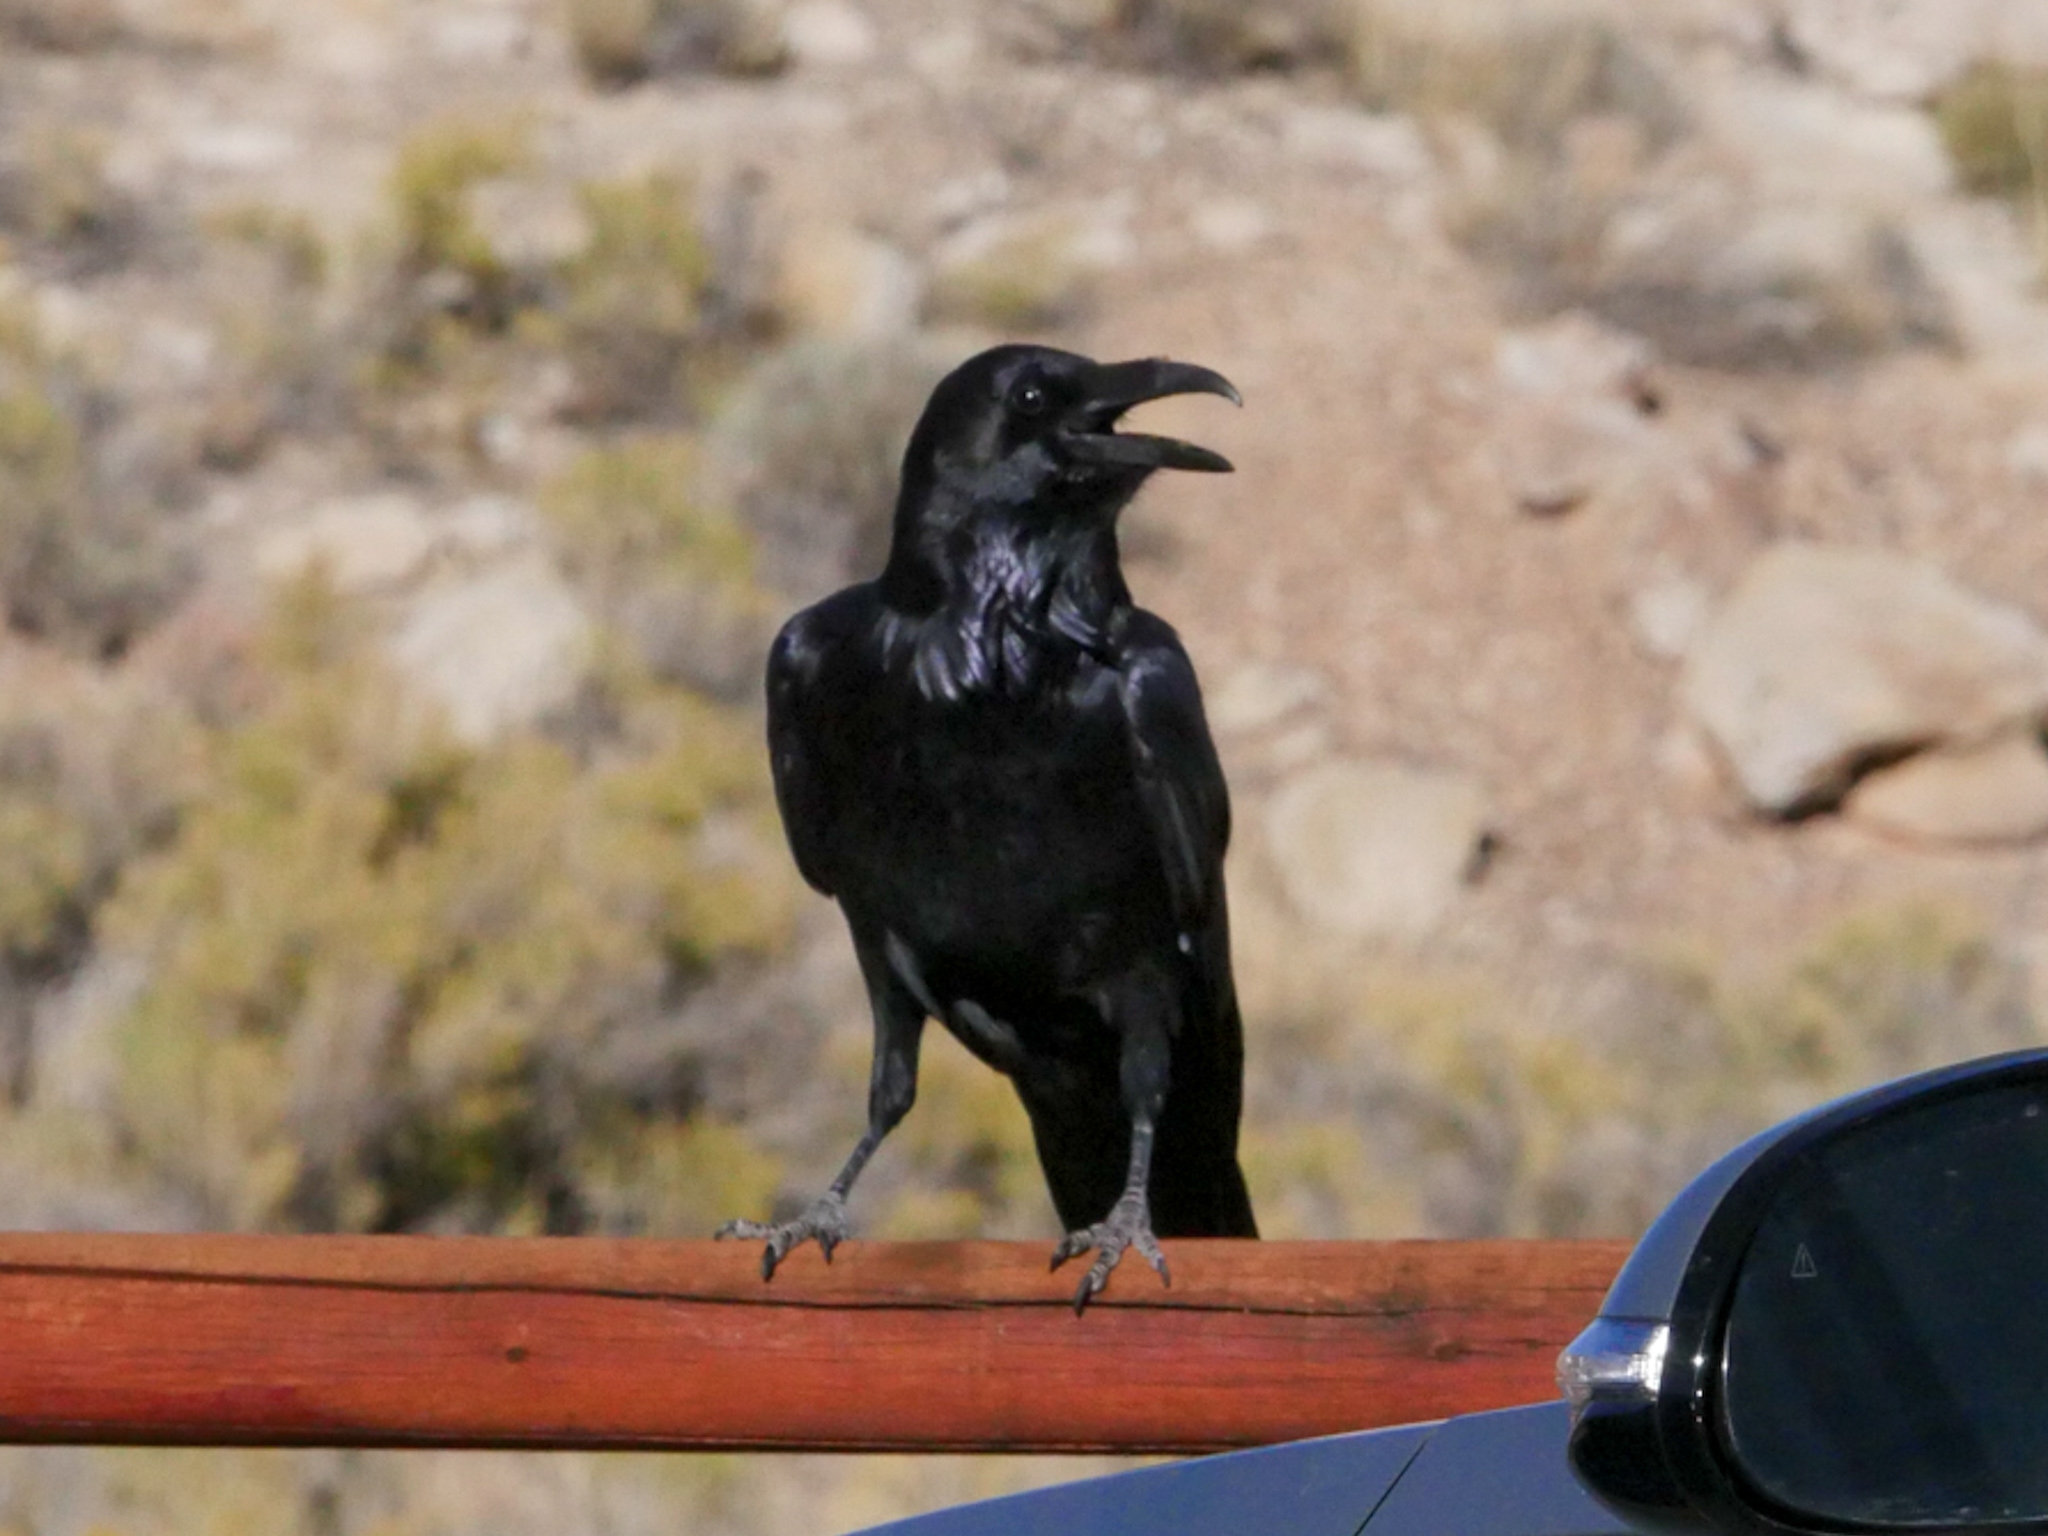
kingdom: Animalia
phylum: Chordata
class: Aves
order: Passeriformes
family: Corvidae
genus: Corvus
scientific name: Corvus corax
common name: Common raven
